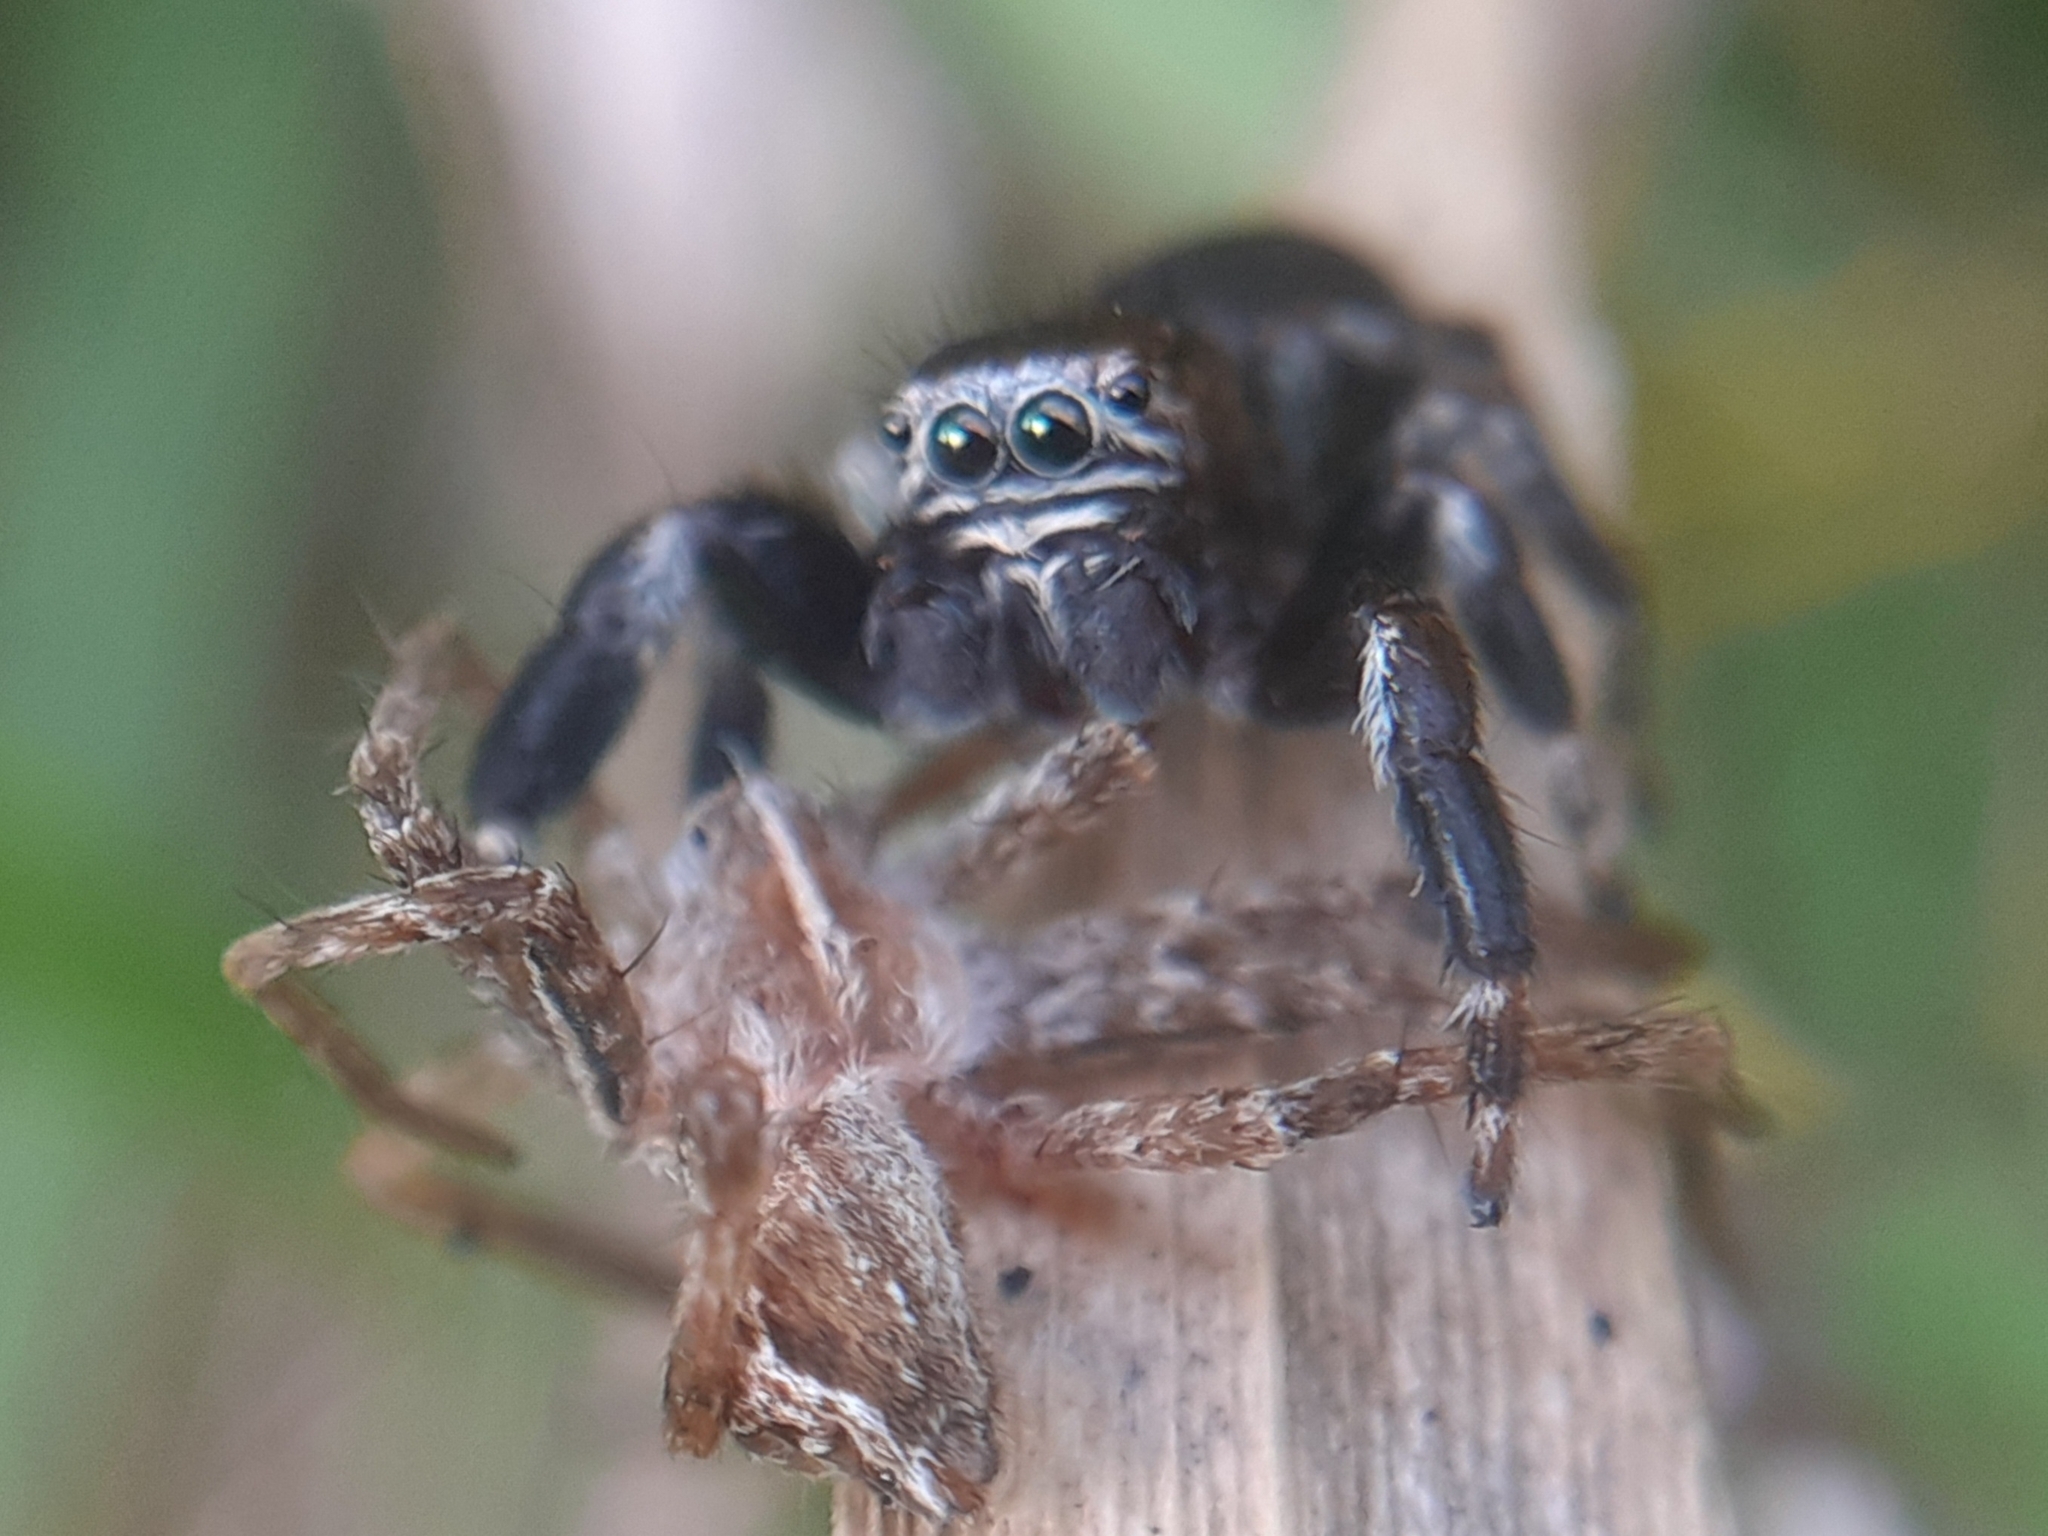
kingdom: Animalia
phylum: Arthropoda
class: Arachnida
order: Araneae
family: Salticidae
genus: Evarcha
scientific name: Evarcha arcuata
